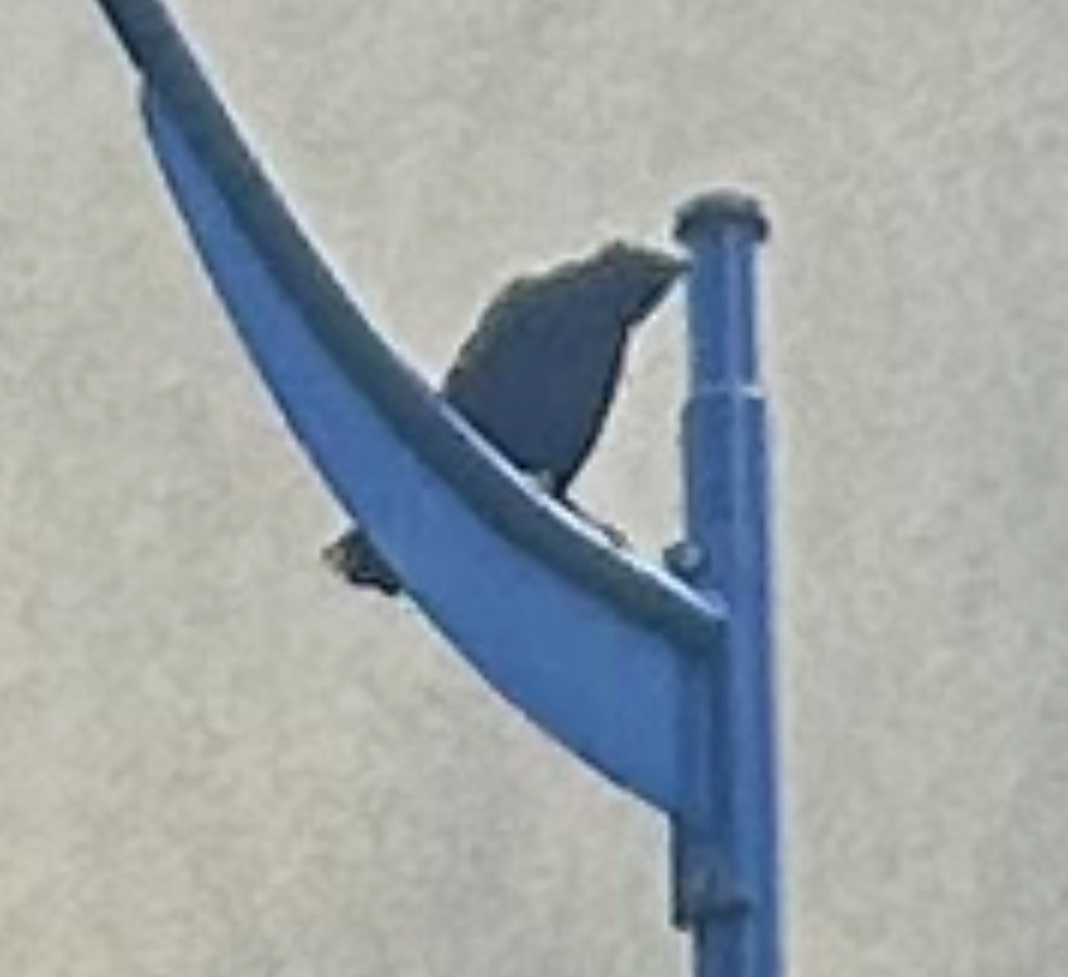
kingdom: Animalia
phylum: Chordata
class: Aves
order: Passeriformes
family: Corvidae
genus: Corvus
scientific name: Corvus corone
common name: Carrion crow
